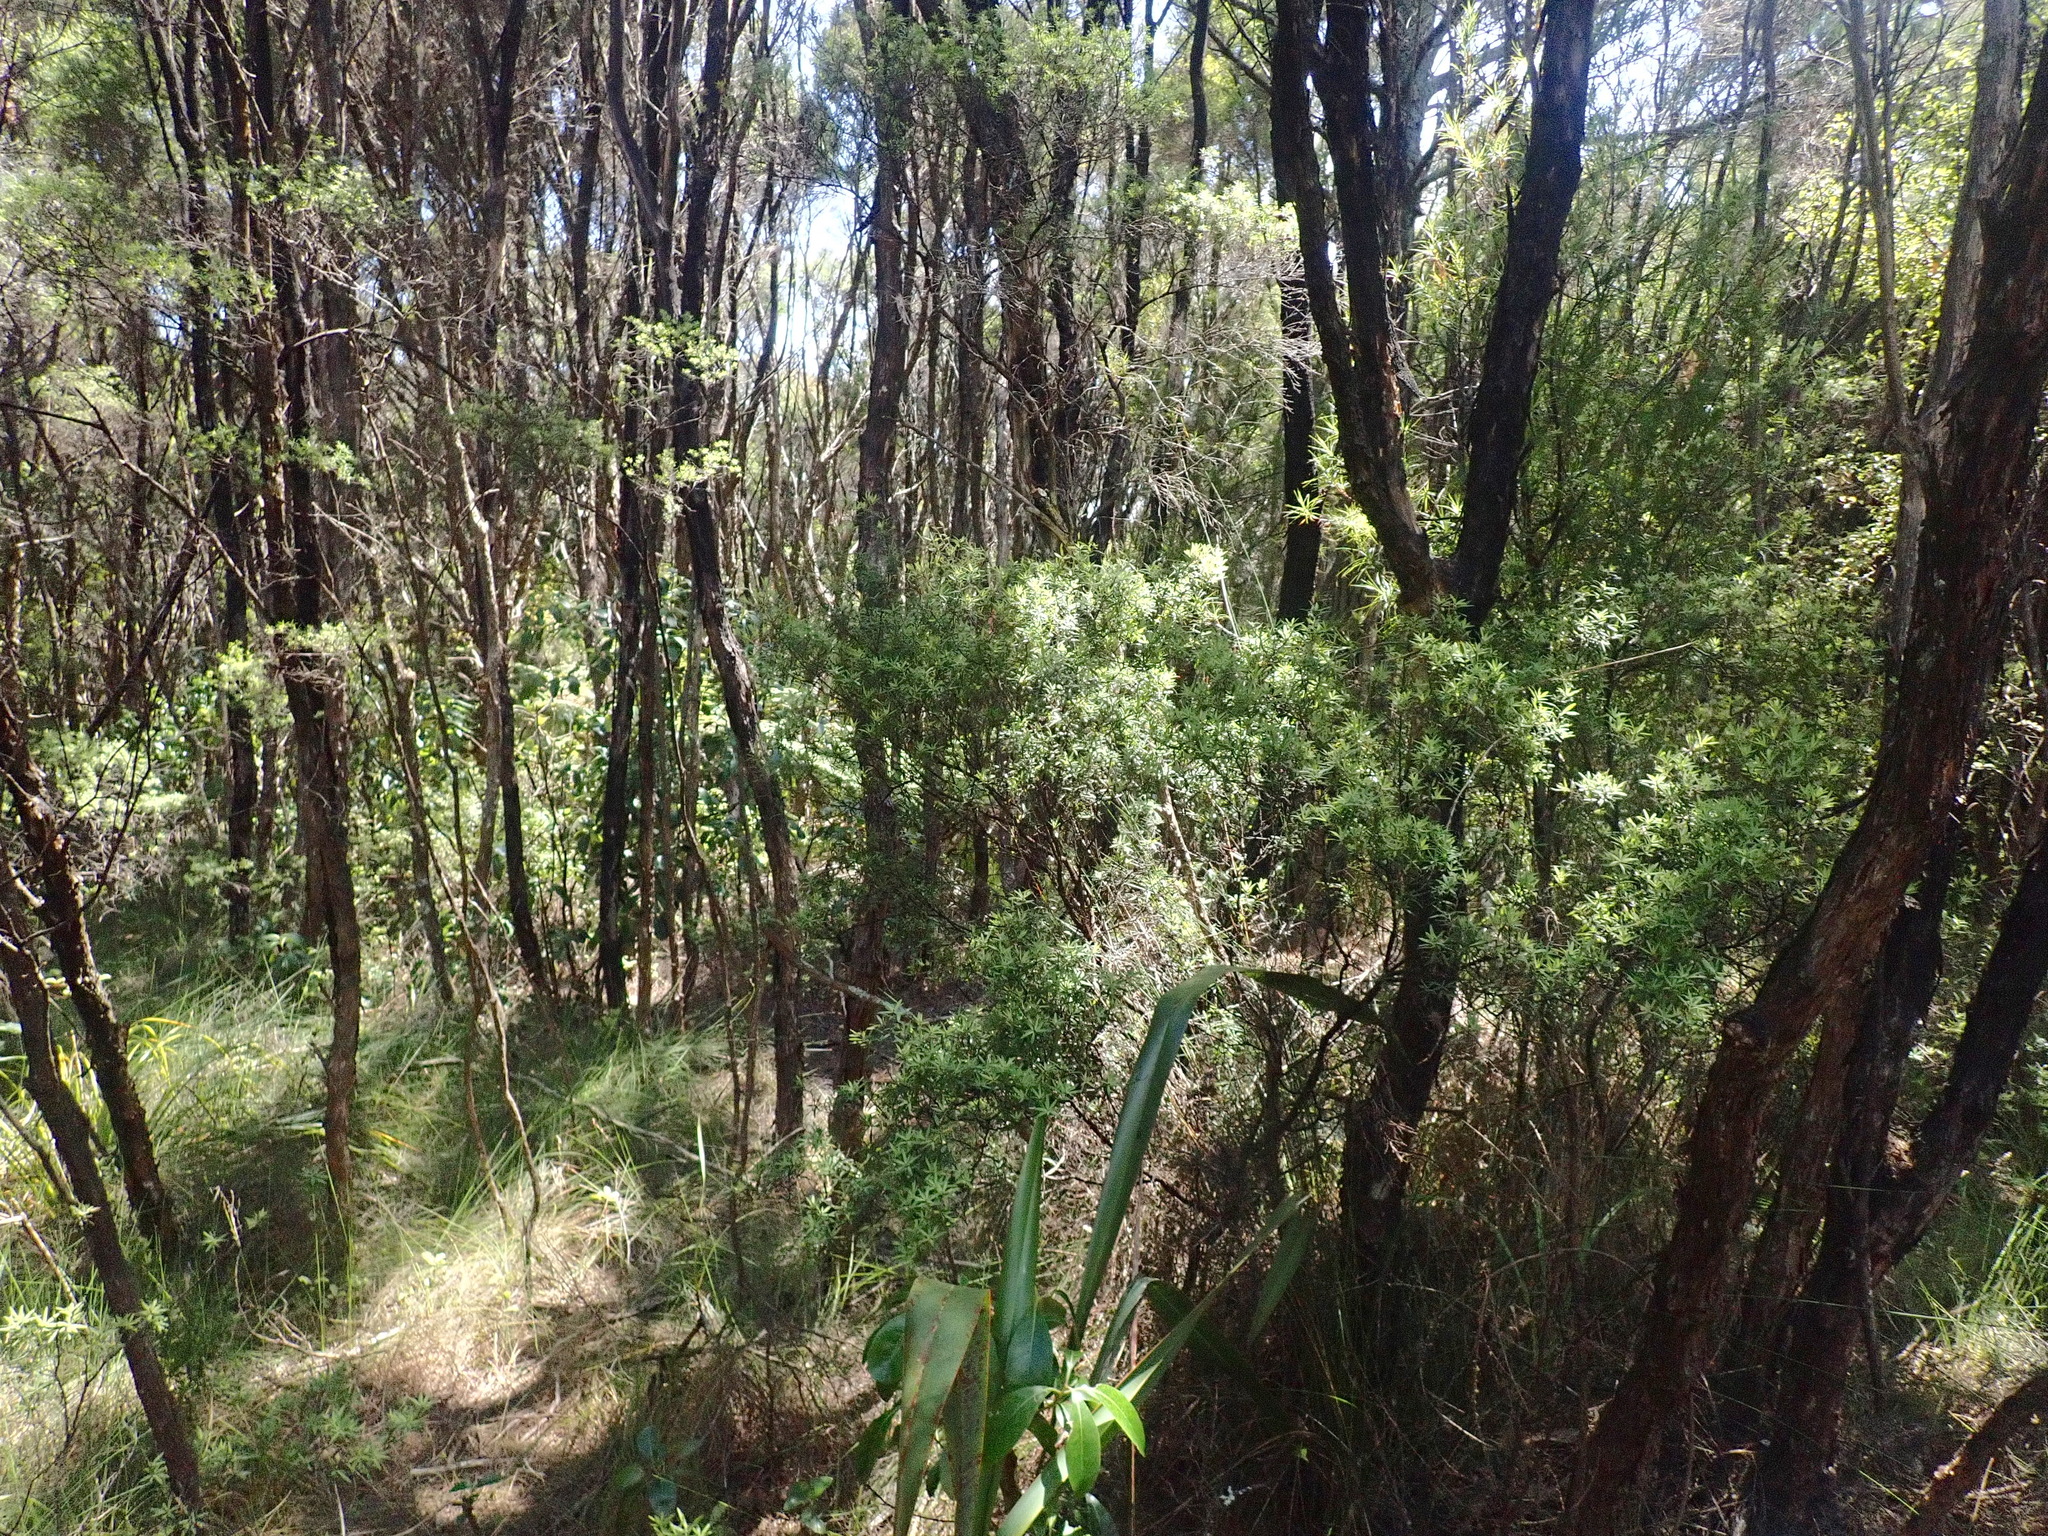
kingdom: Plantae
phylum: Tracheophyta
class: Liliopsida
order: Asparagales
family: Asphodelaceae
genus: Phormium
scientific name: Phormium tenax
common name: New zealand flax
